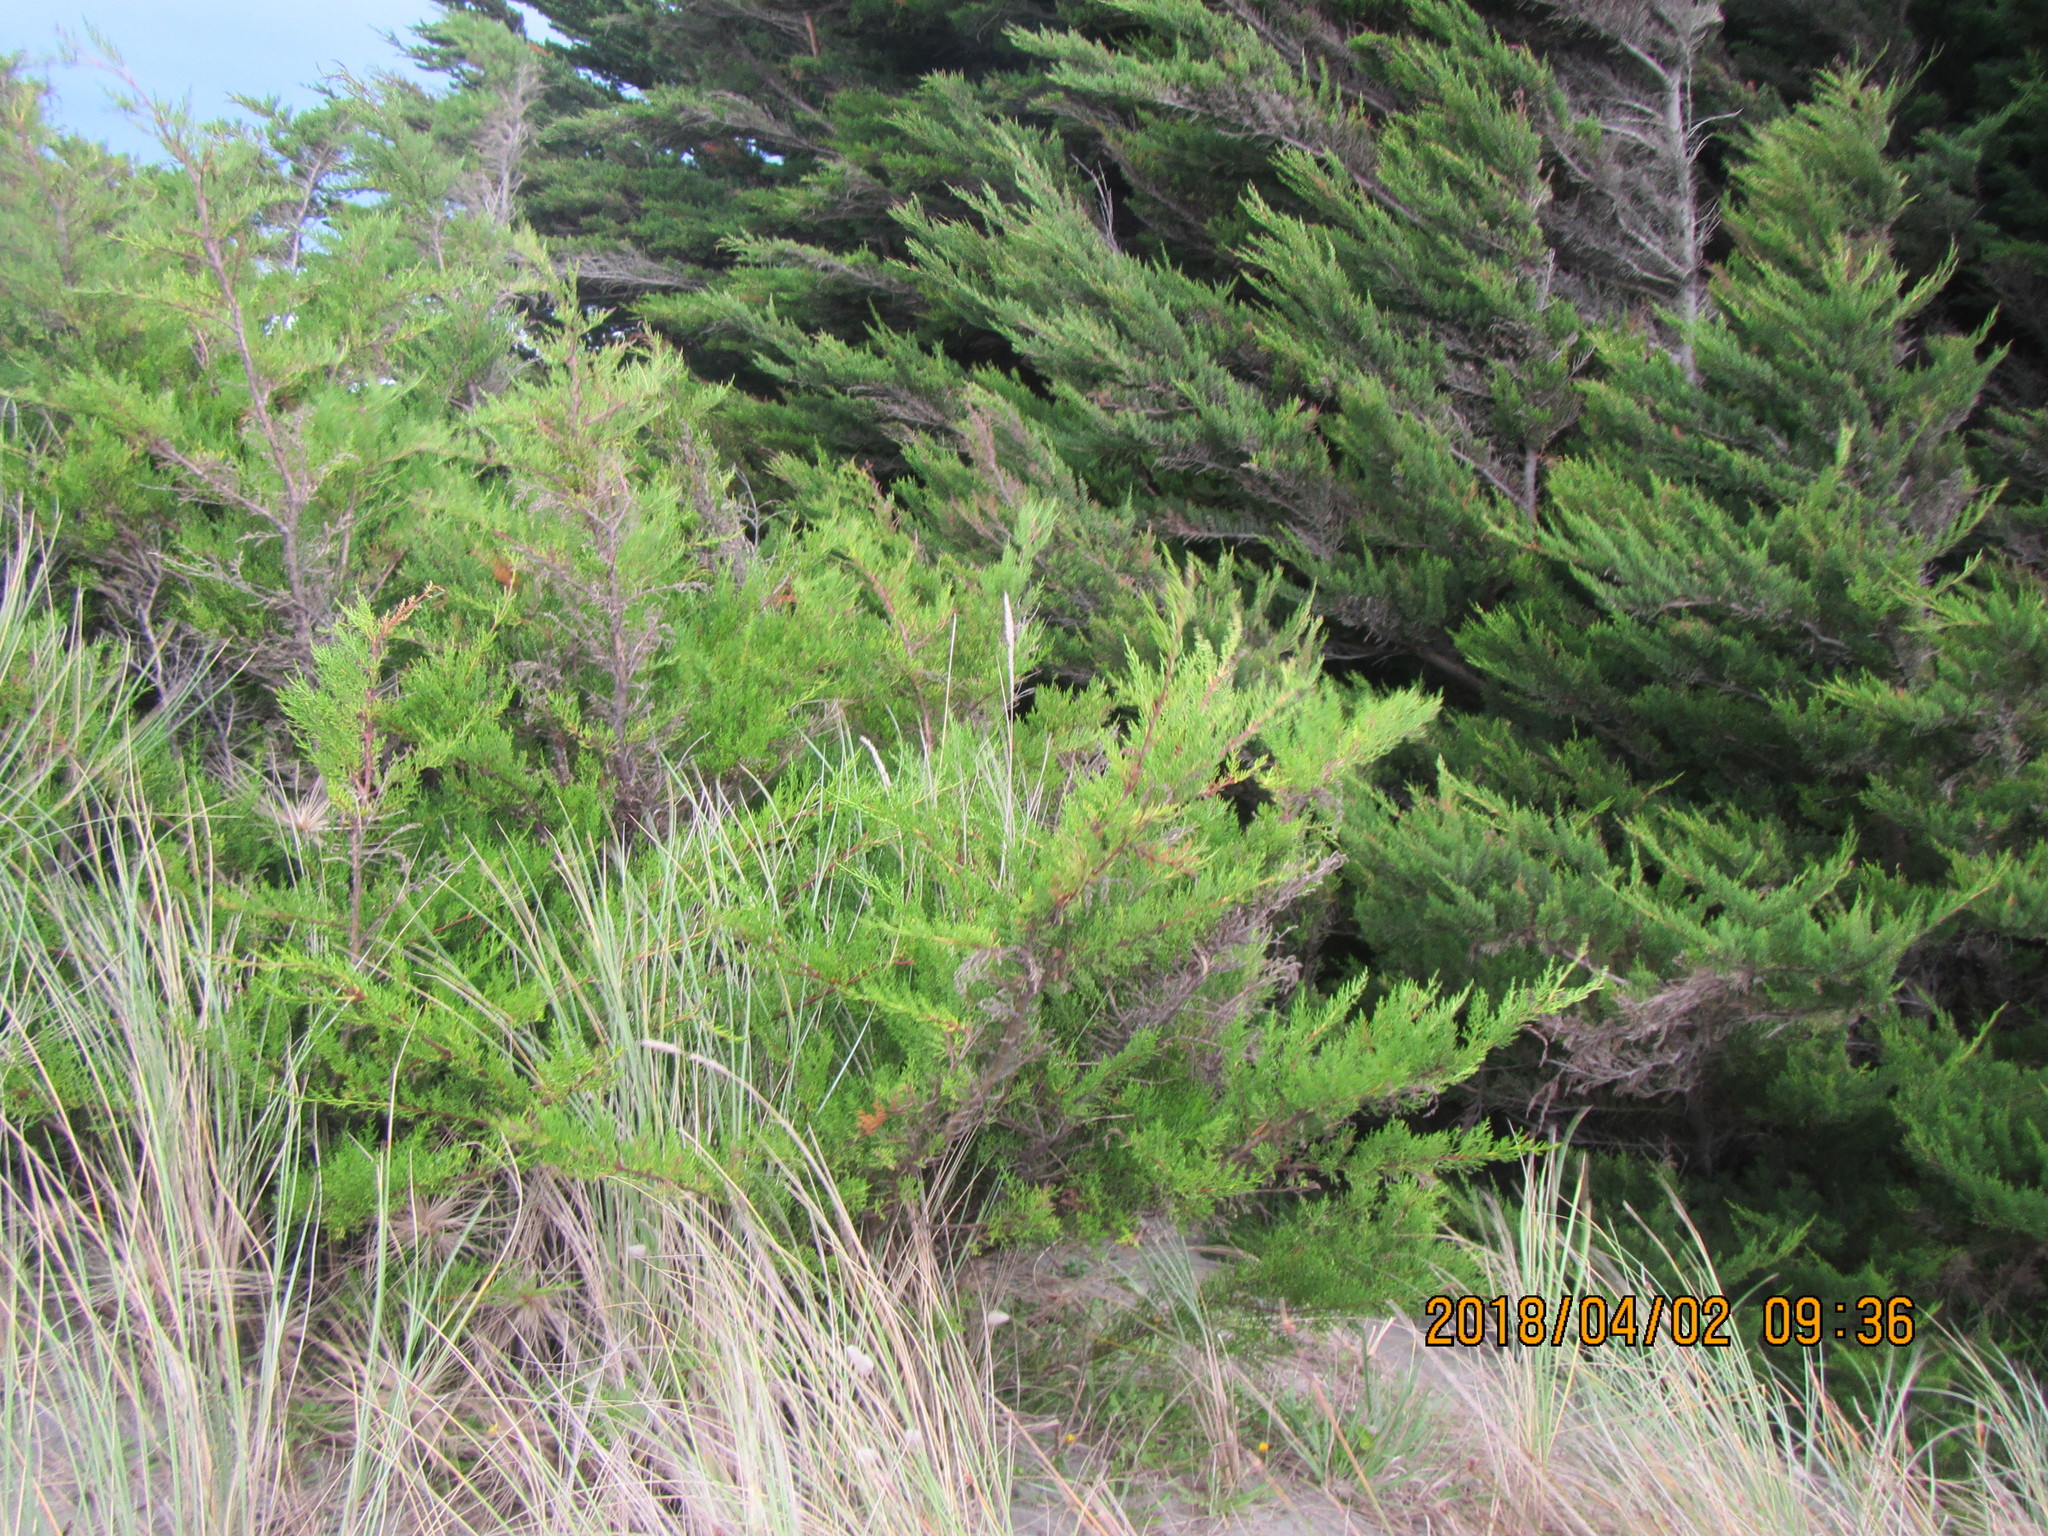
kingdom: Plantae
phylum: Tracheophyta
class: Pinopsida
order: Pinales
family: Cupressaceae
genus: Cupressus
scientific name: Cupressus macrocarpa
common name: Monterey cypress
